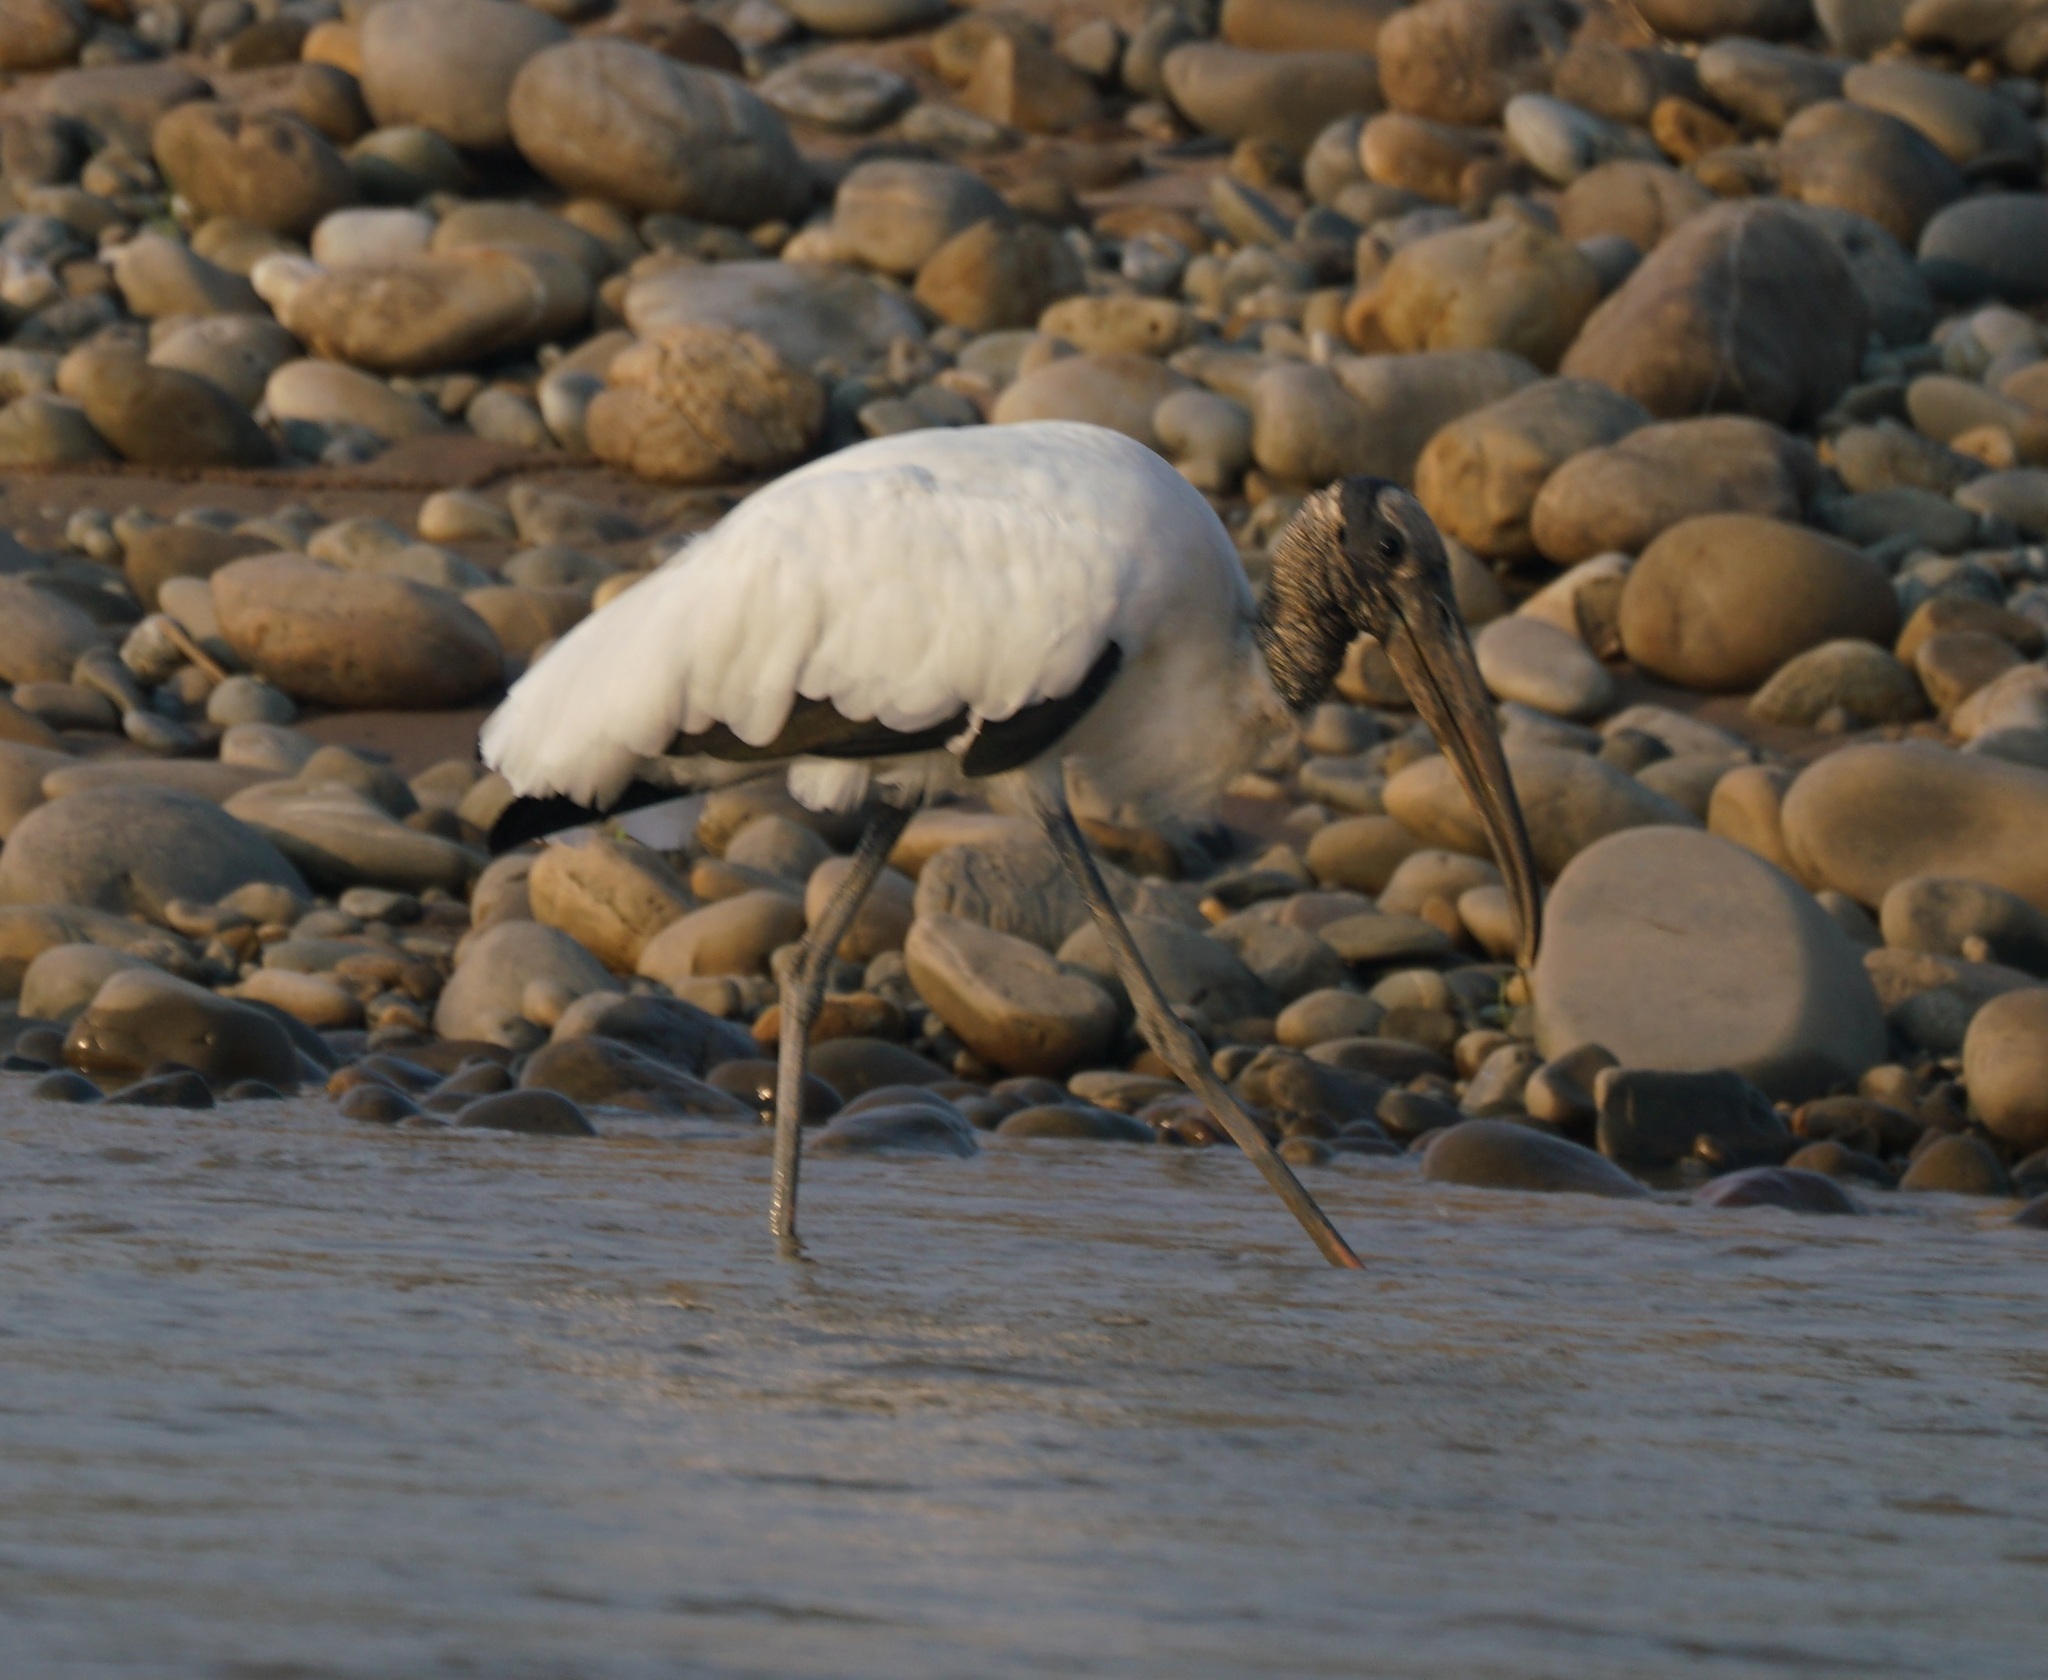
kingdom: Animalia
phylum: Chordata
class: Aves
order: Ciconiiformes
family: Ciconiidae
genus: Mycteria
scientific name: Mycteria americana
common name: Wood stork
